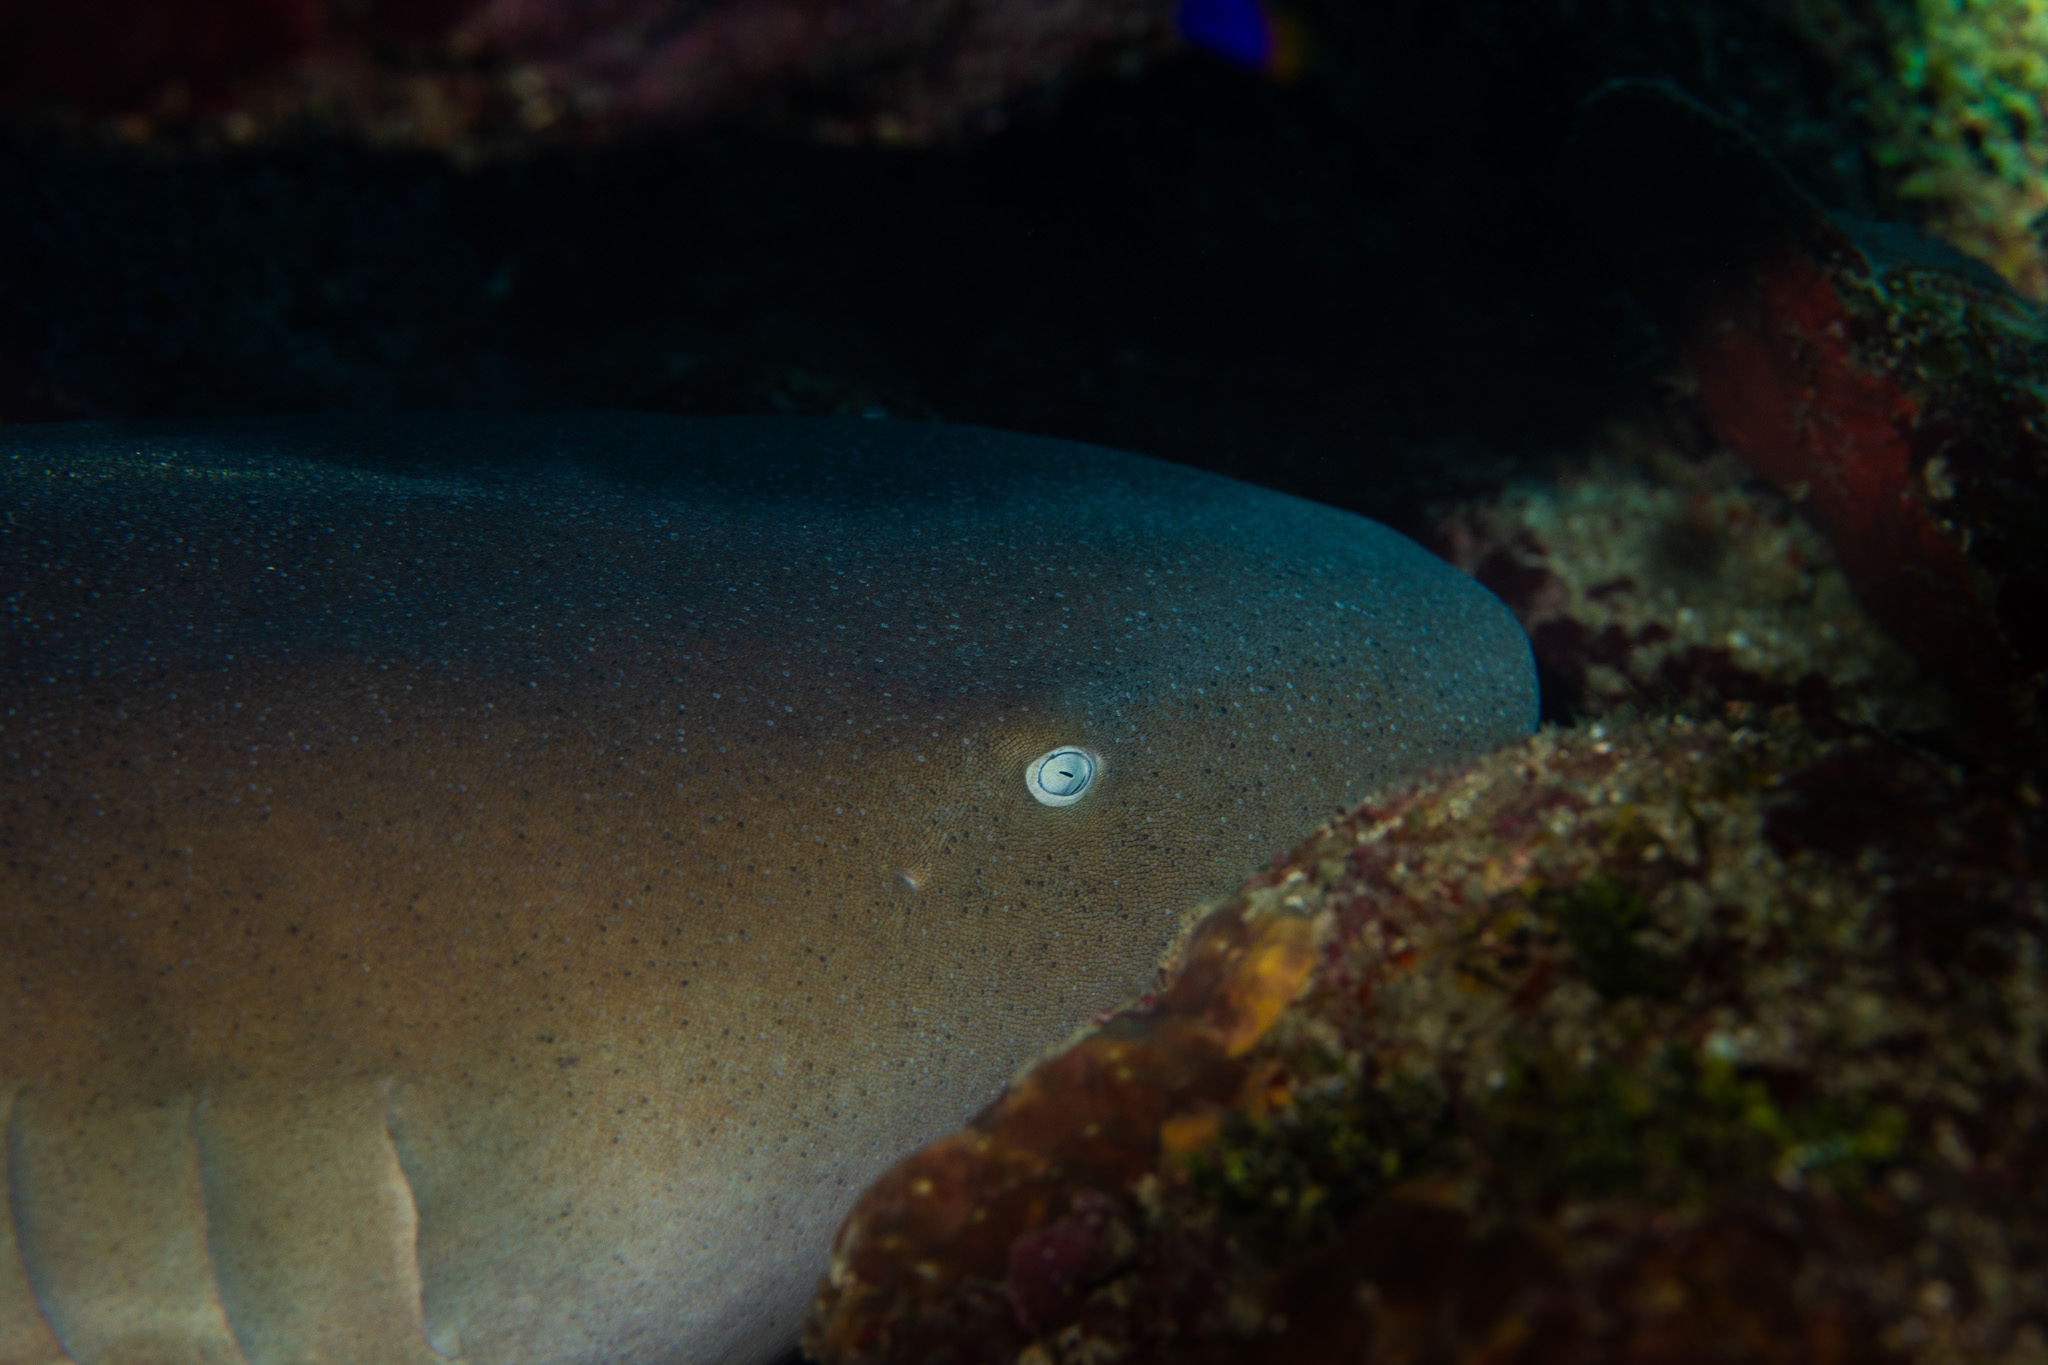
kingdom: Animalia
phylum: Chordata
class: Elasmobranchii
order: Orectolobiformes
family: Ginglymostomatidae
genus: Ginglymostoma
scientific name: Ginglymostoma cirratum
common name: Nurse shark
